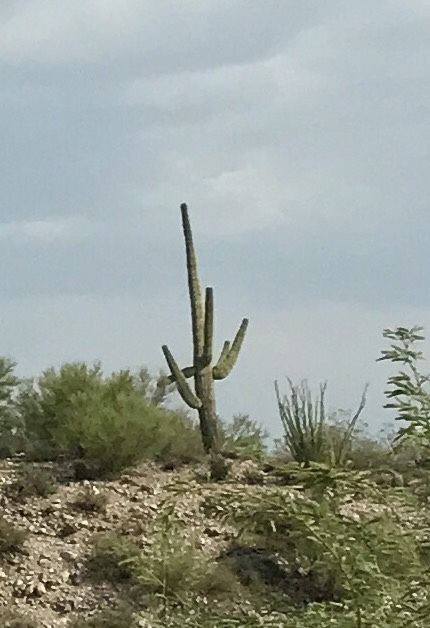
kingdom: Plantae
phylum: Tracheophyta
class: Magnoliopsida
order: Caryophyllales
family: Cactaceae
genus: Carnegiea
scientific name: Carnegiea gigantea
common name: Saguaro
